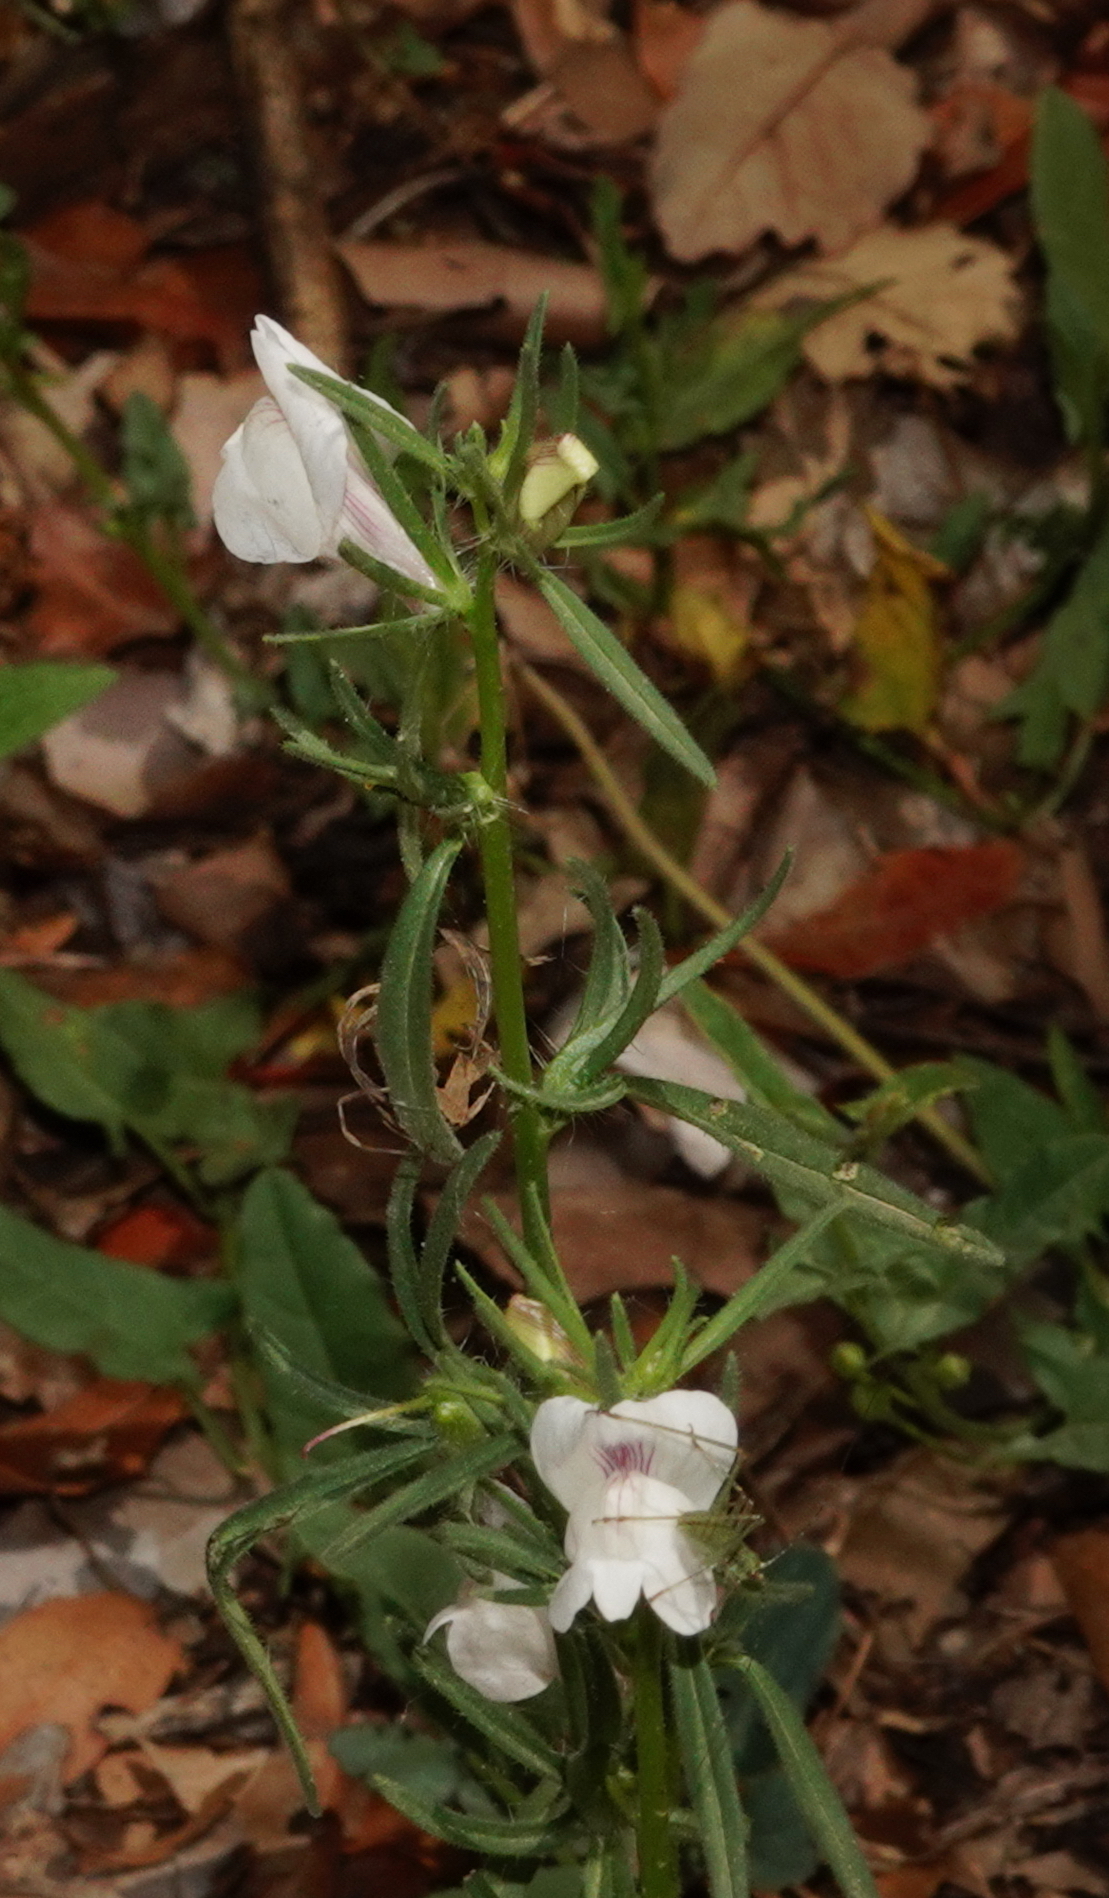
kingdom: Plantae
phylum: Tracheophyta
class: Magnoliopsida
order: Lamiales
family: Plantaginaceae
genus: Misopates
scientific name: Misopates calycinum
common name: Pale weasel's-snout
